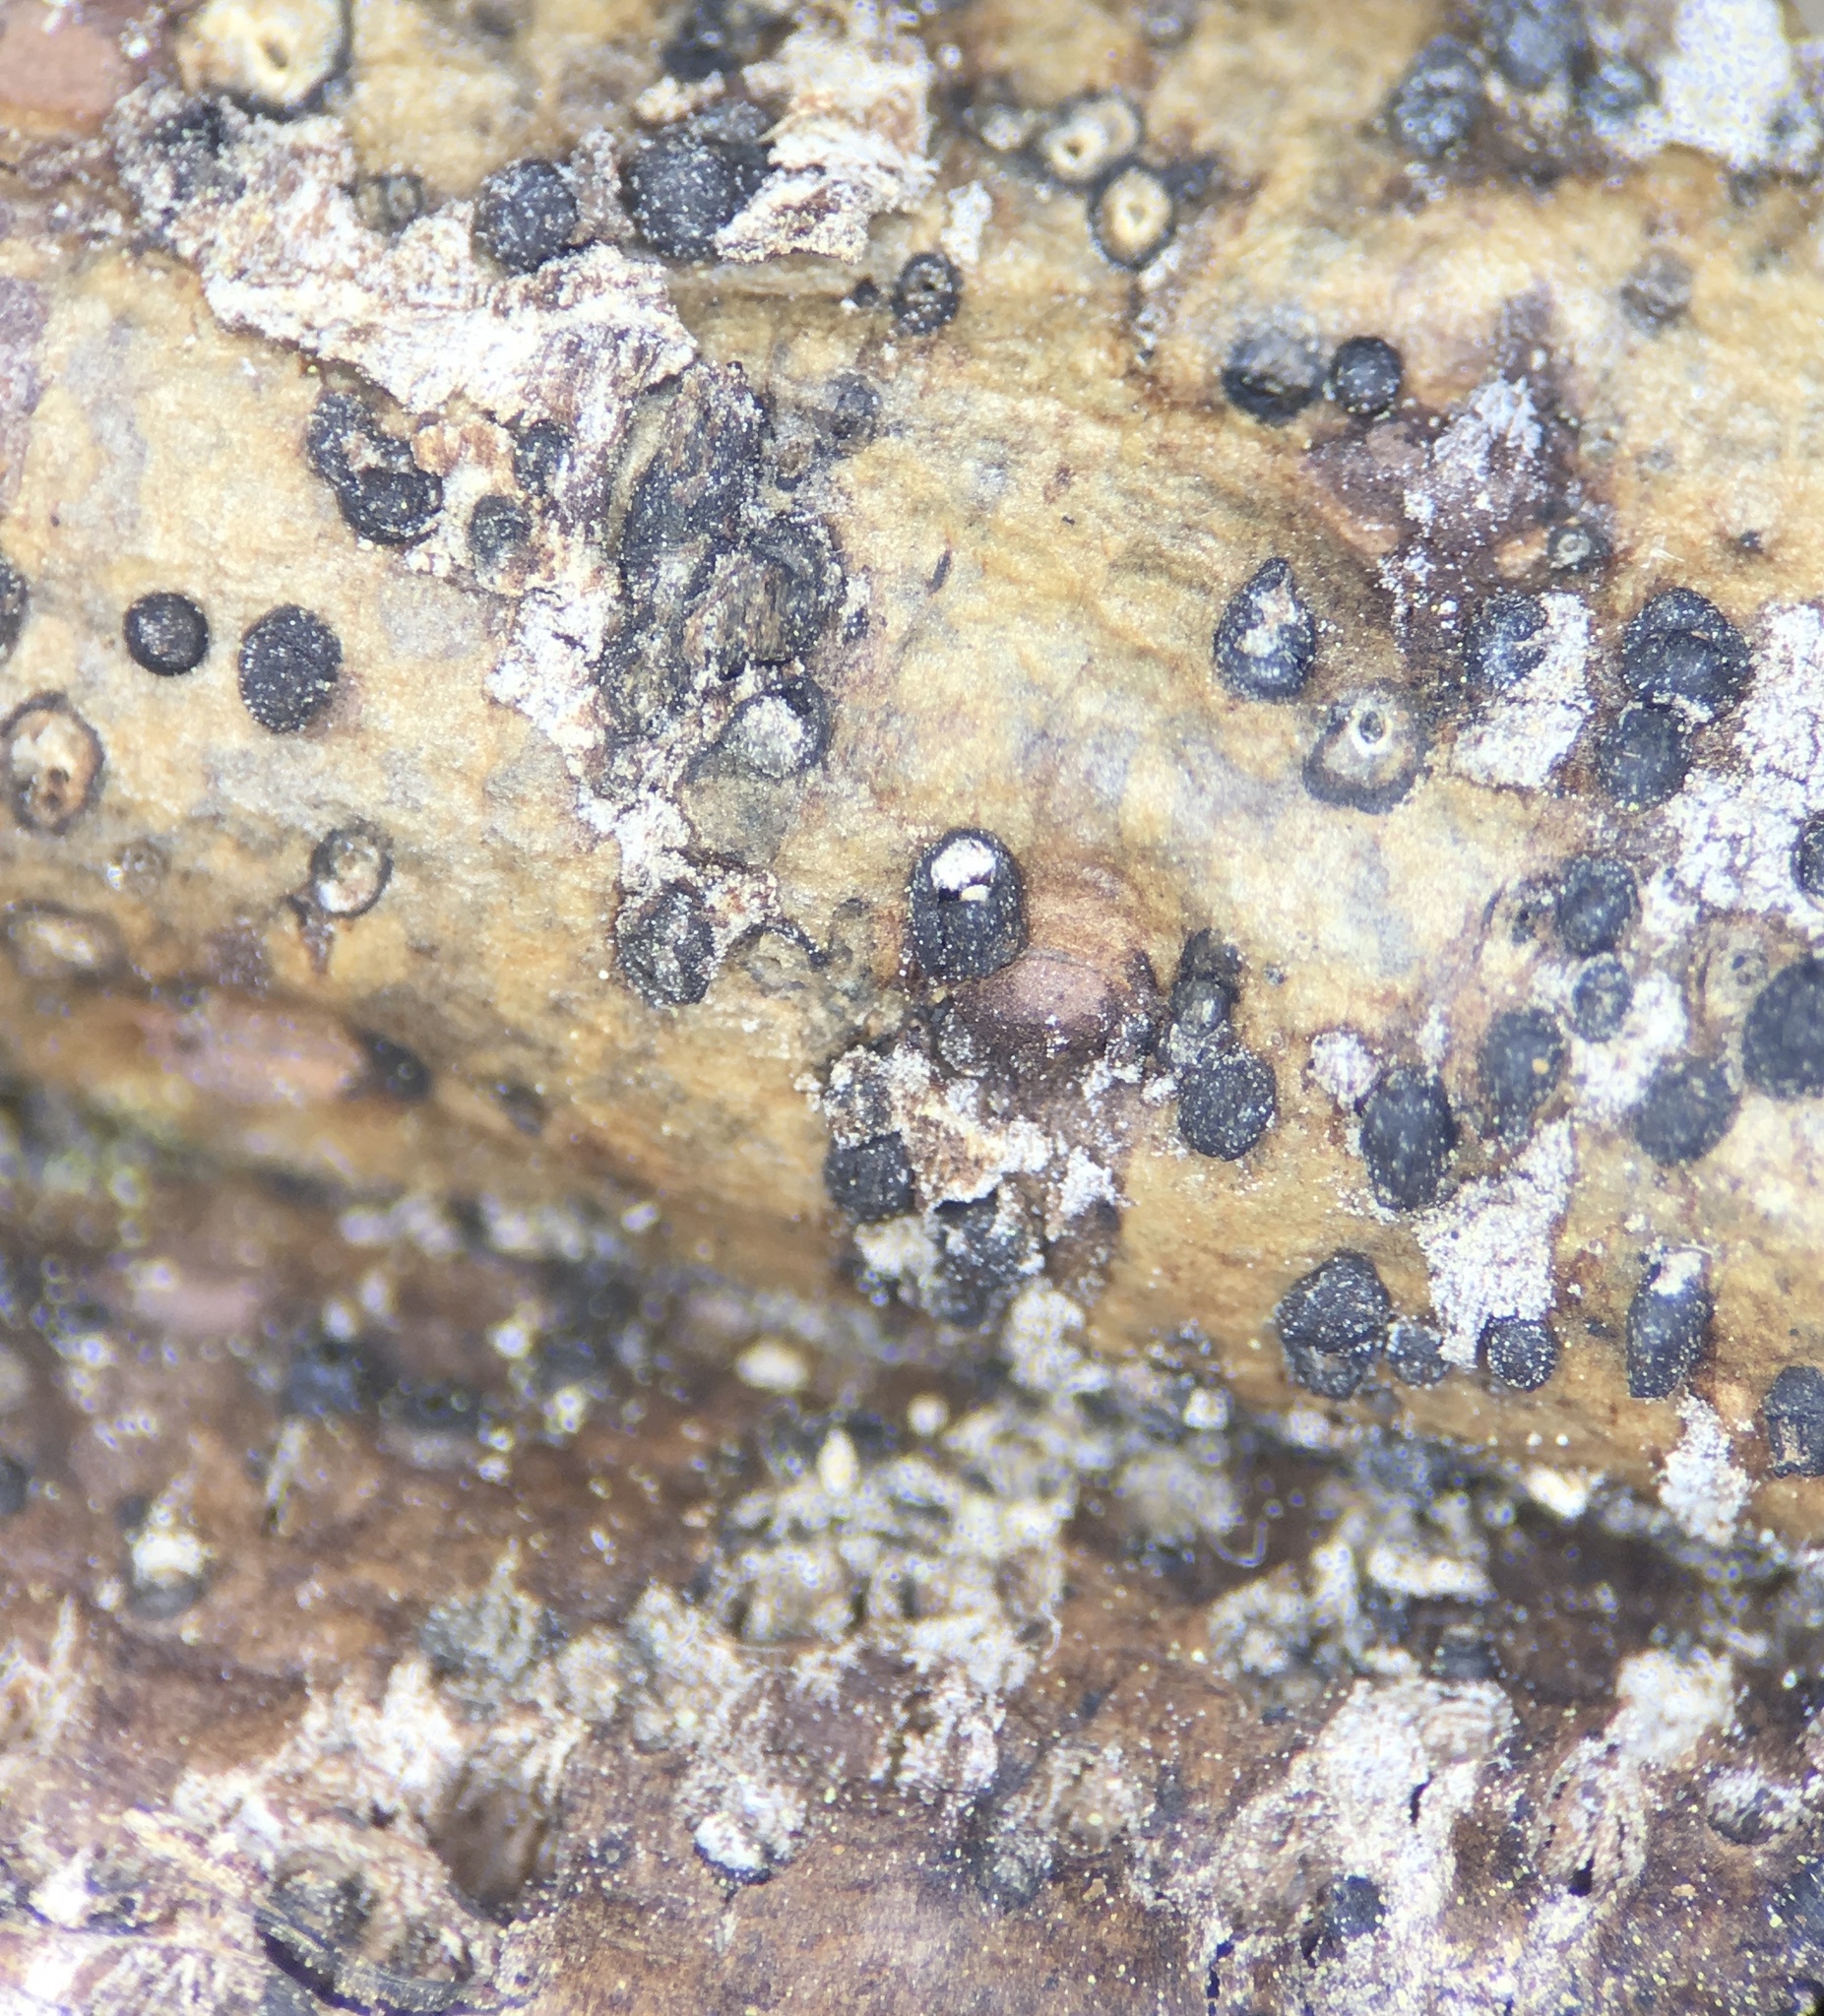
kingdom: Fungi
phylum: Ascomycota
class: Eurotiomycetes
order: Pyrenulales
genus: Splanchospora
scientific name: Splanchospora ampullacea
